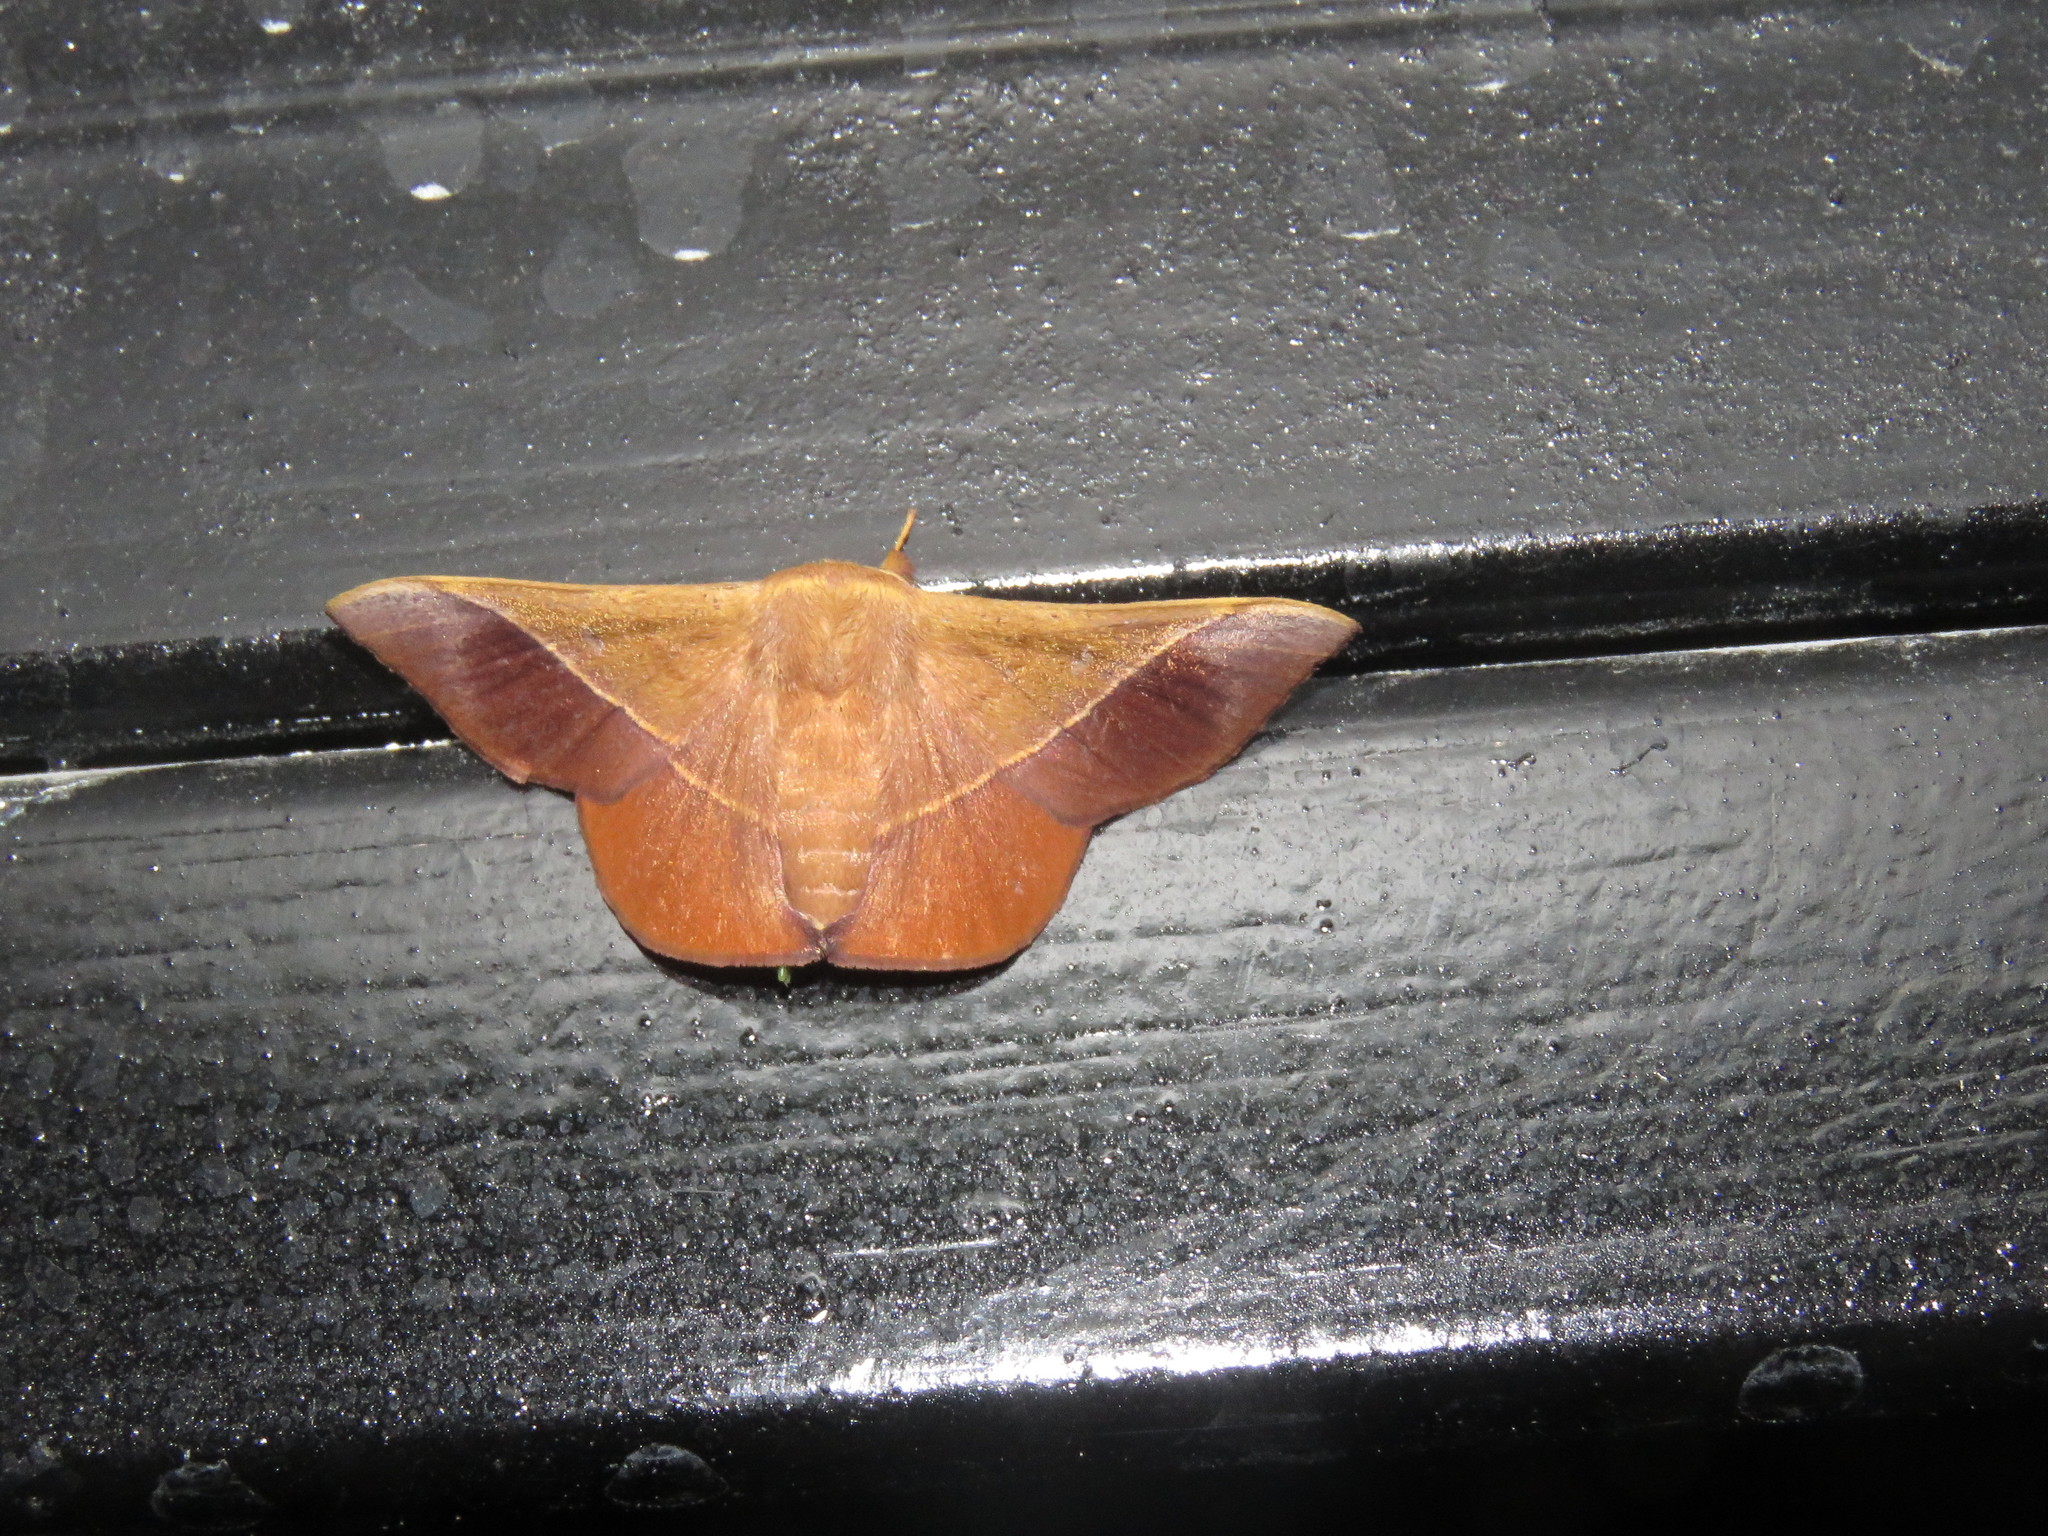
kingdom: Animalia
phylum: Arthropoda
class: Insecta
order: Lepidoptera
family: Mimallonidae
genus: Alheita
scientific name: Alheita caudina
